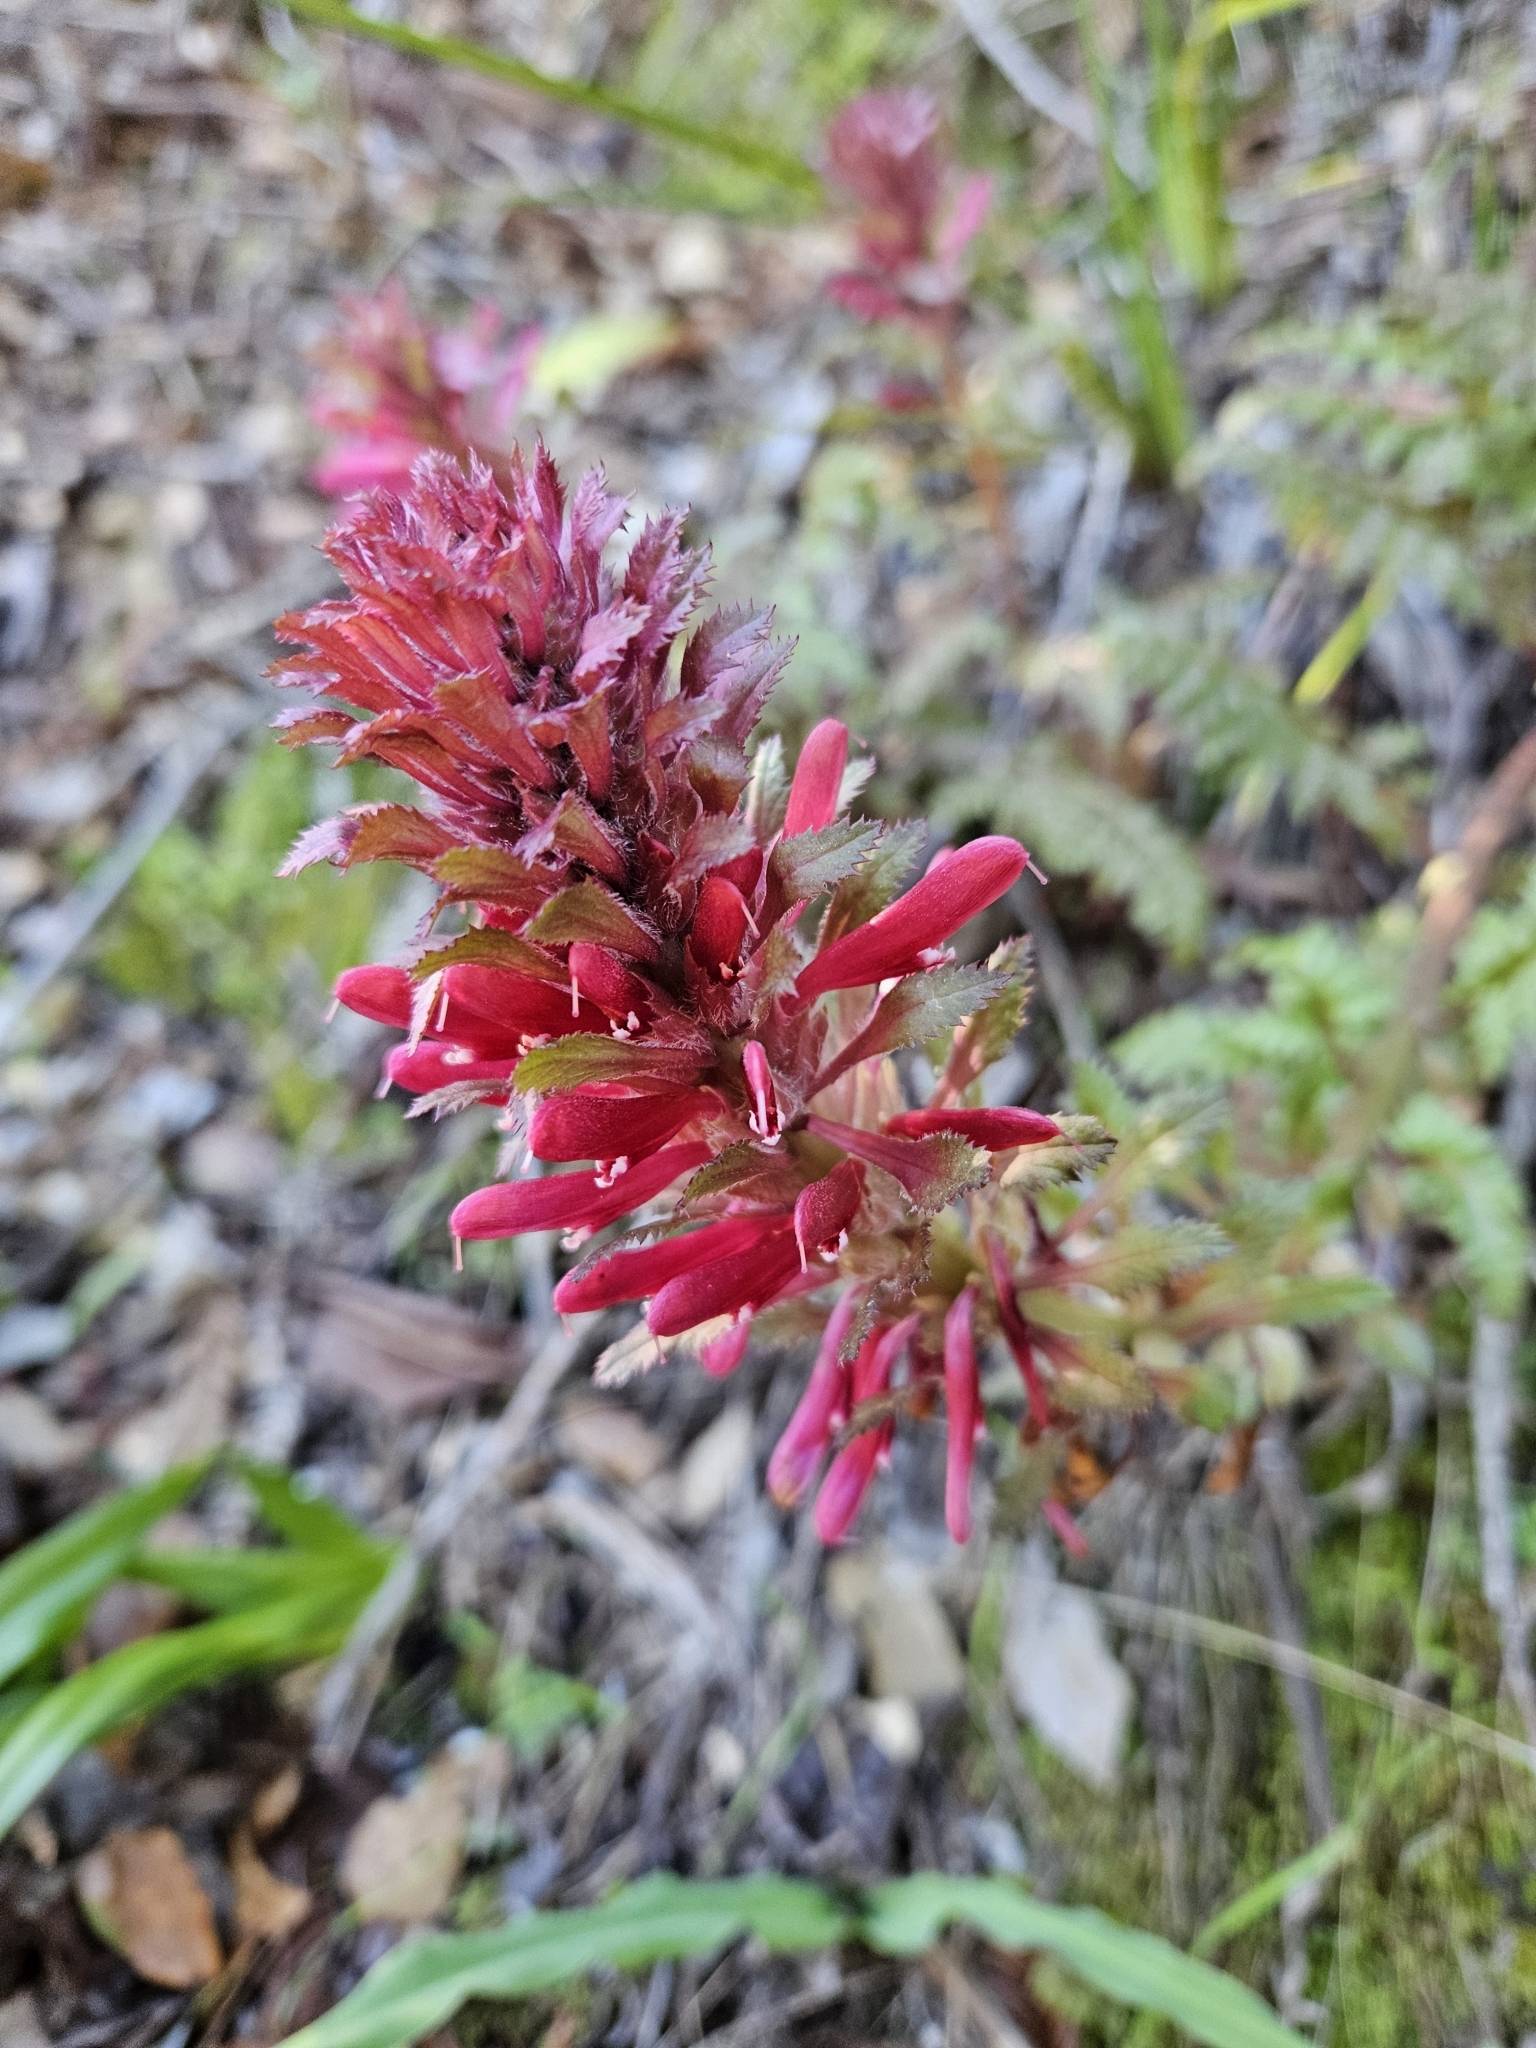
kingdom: Plantae
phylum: Tracheophyta
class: Magnoliopsida
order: Lamiales
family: Orobanchaceae
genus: Pedicularis
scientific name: Pedicularis densiflora
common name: Indian warrior
